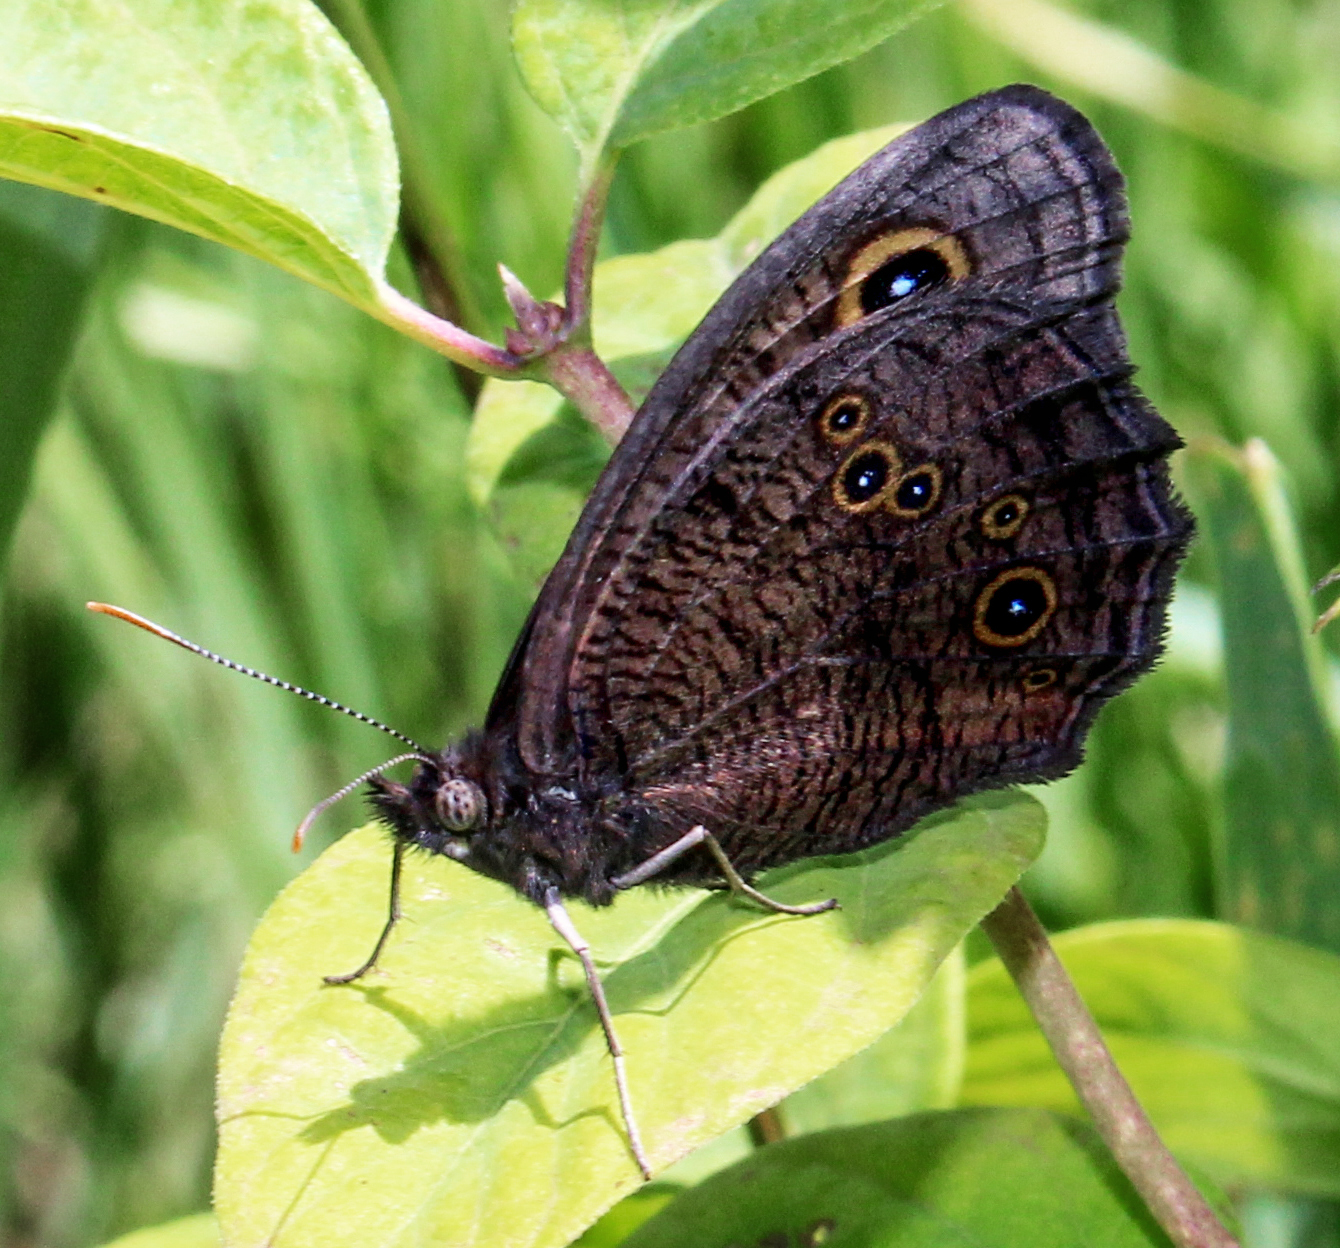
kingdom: Animalia
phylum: Arthropoda
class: Insecta
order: Lepidoptera
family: Nymphalidae
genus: Cercyonis
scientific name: Cercyonis pegala
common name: Common wood-nymph
